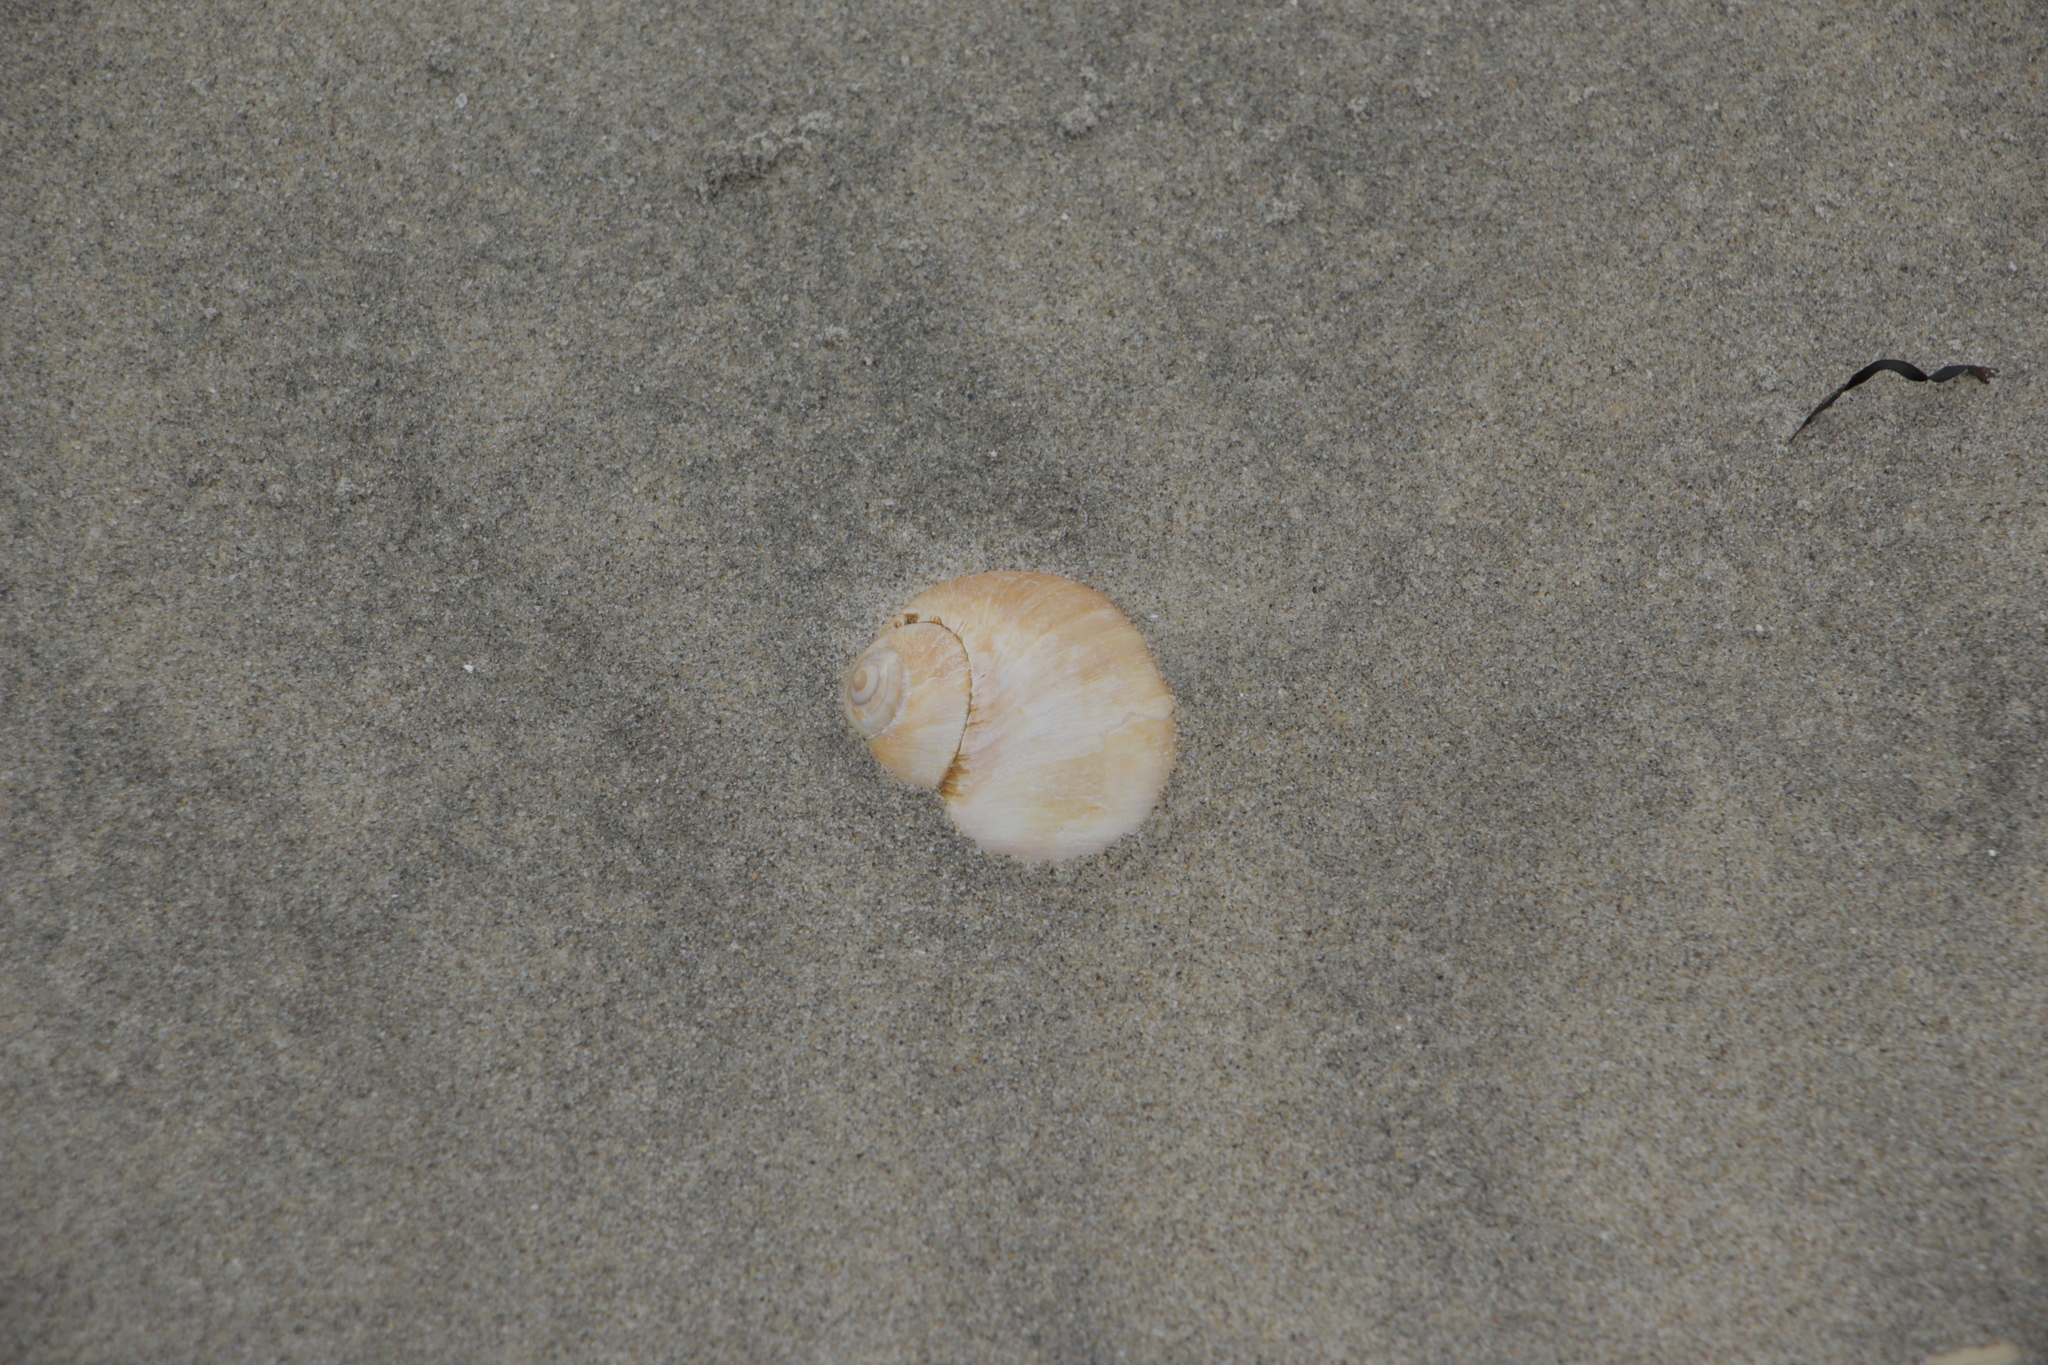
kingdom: Animalia
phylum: Mollusca
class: Gastropoda
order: Littorinimorpha
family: Naticidae
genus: Euspira
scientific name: Euspira heros
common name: Common northern moonsnail
